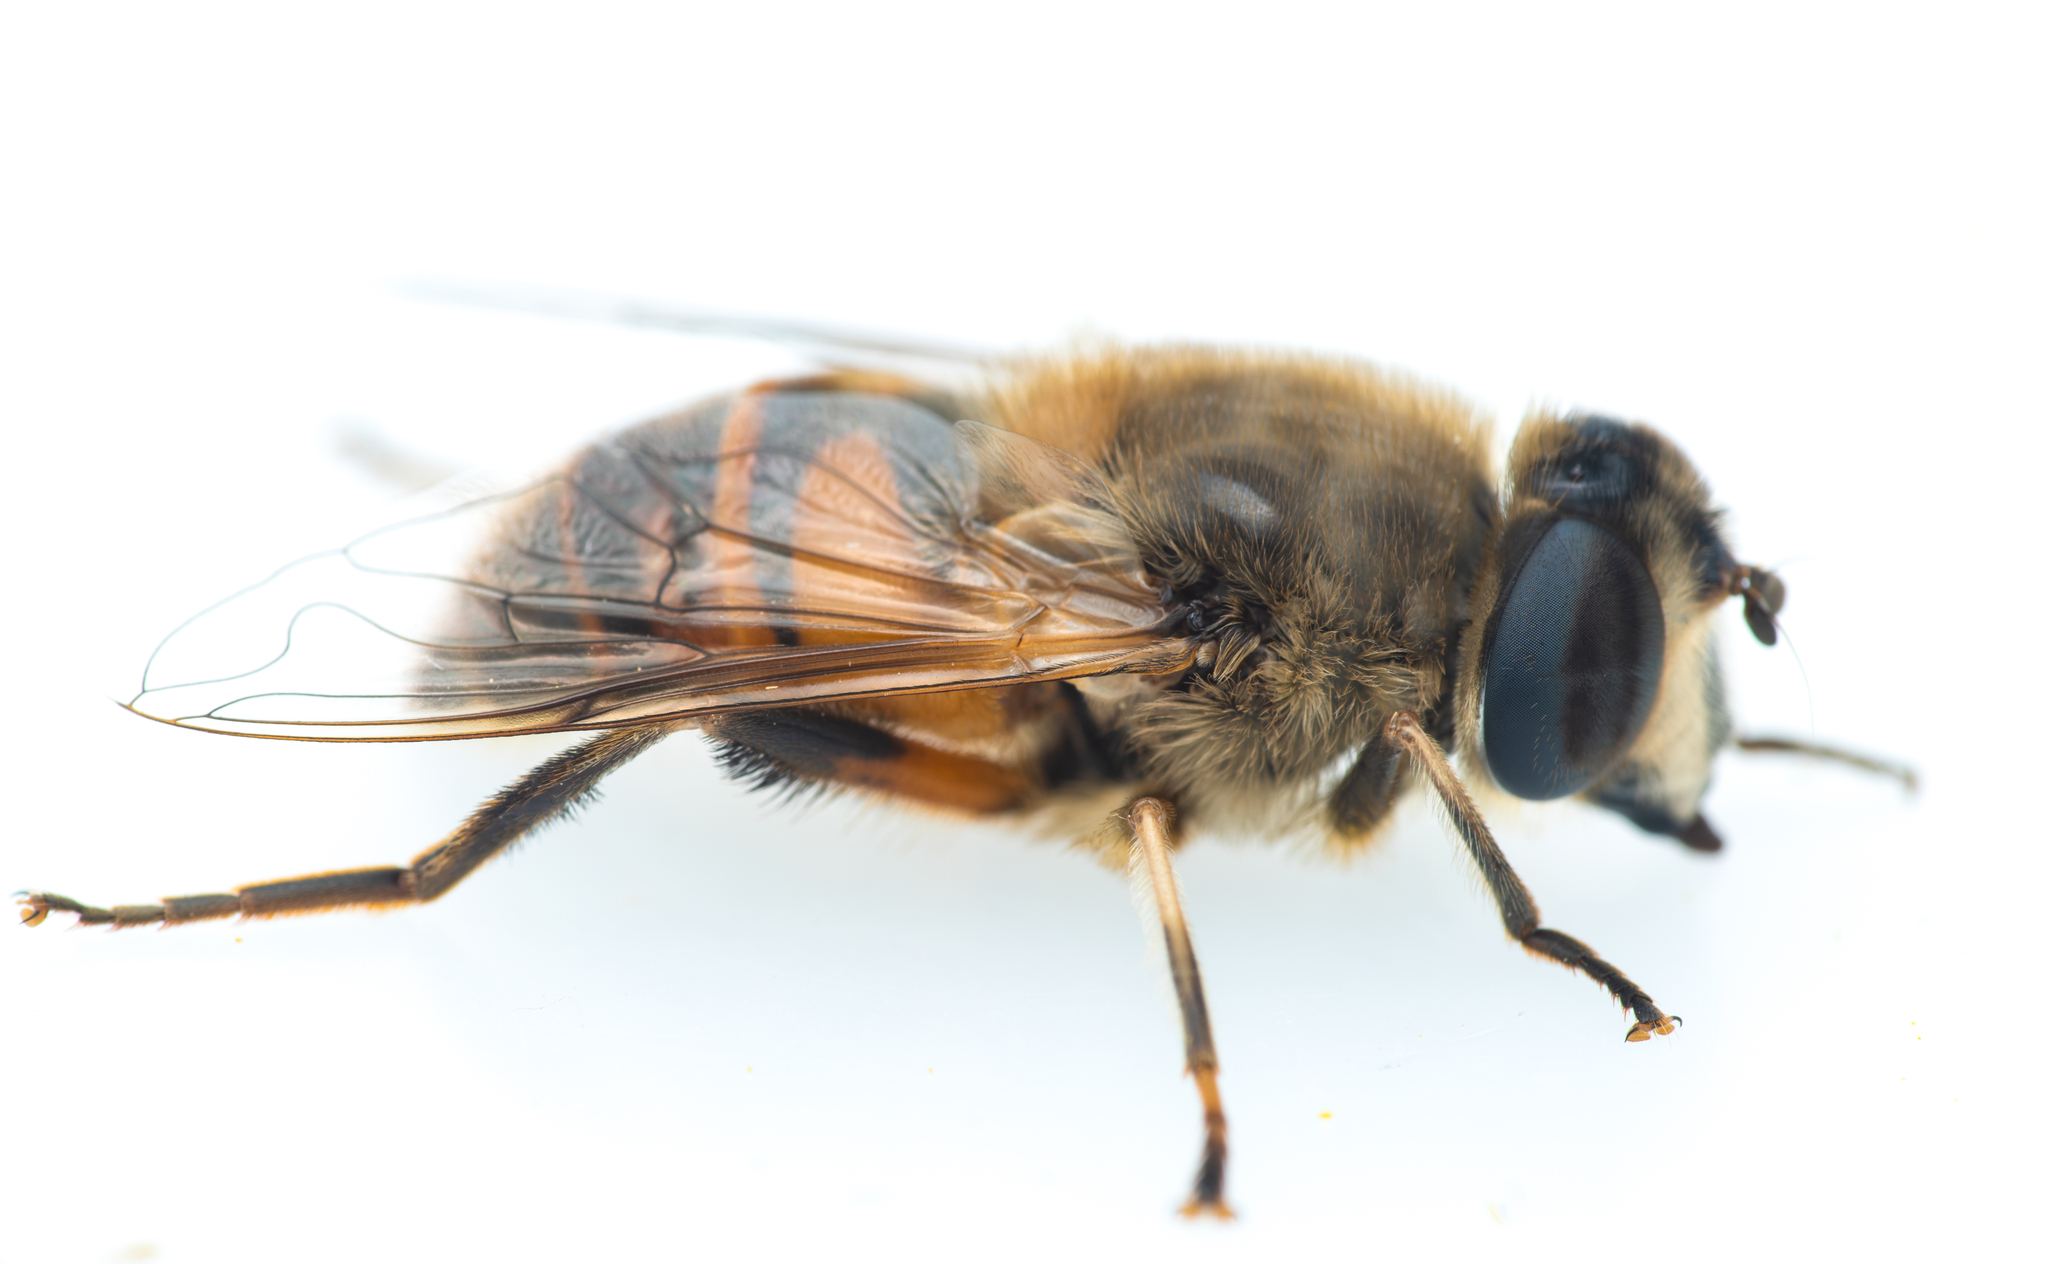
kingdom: Animalia
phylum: Arthropoda
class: Insecta
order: Diptera
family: Syrphidae
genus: Eristalis
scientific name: Eristalis tenax
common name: Drone fly
